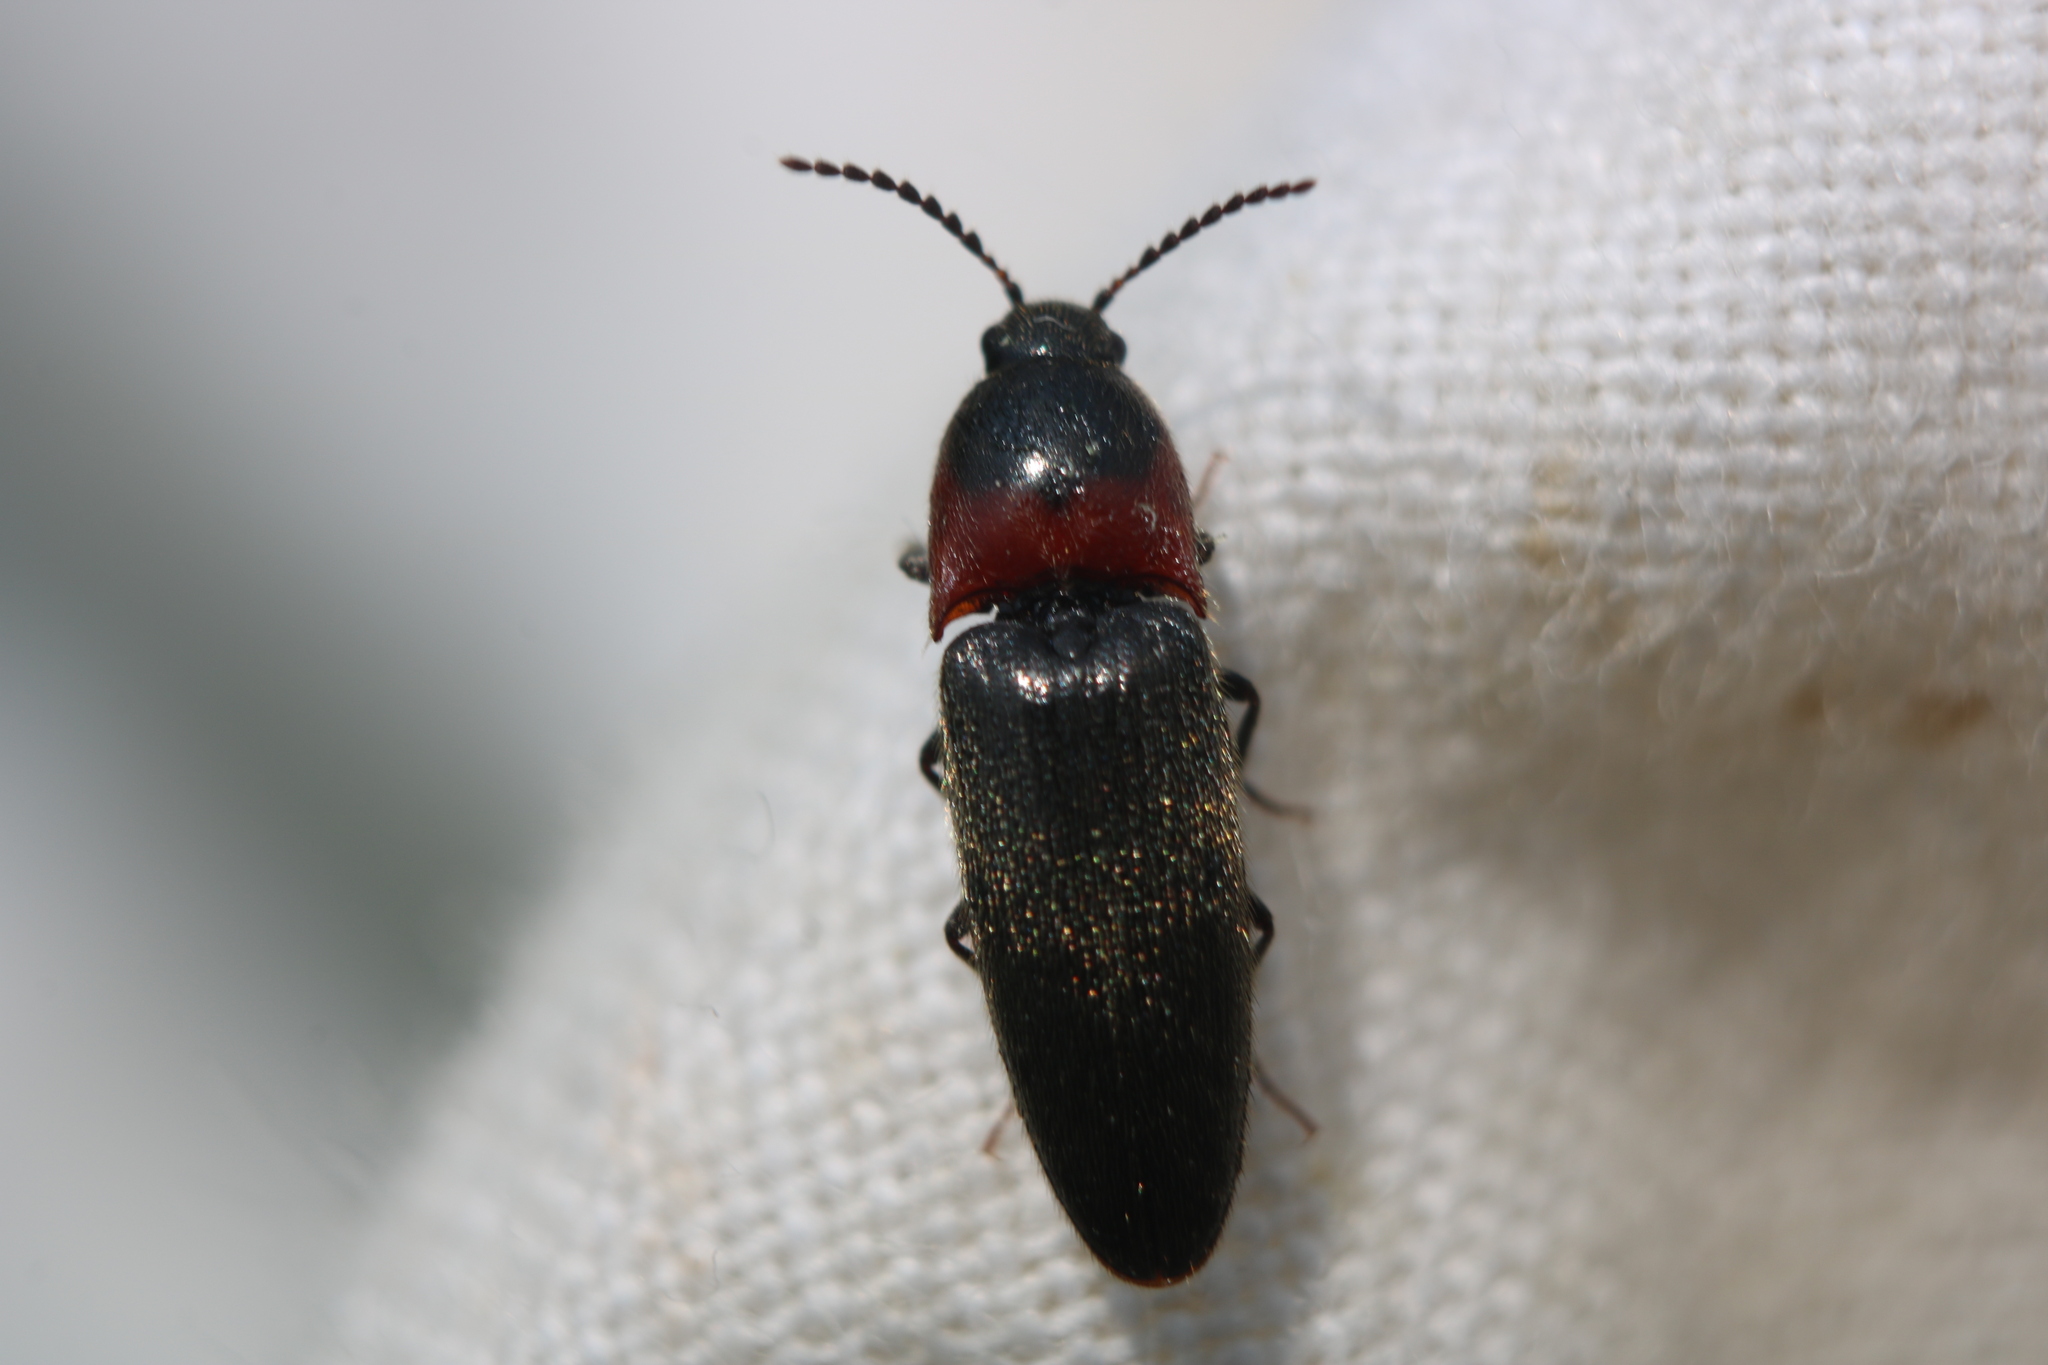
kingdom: Animalia
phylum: Arthropoda
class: Insecta
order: Coleoptera
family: Elateridae
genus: Ampedus
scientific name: Ampedus rubricus
